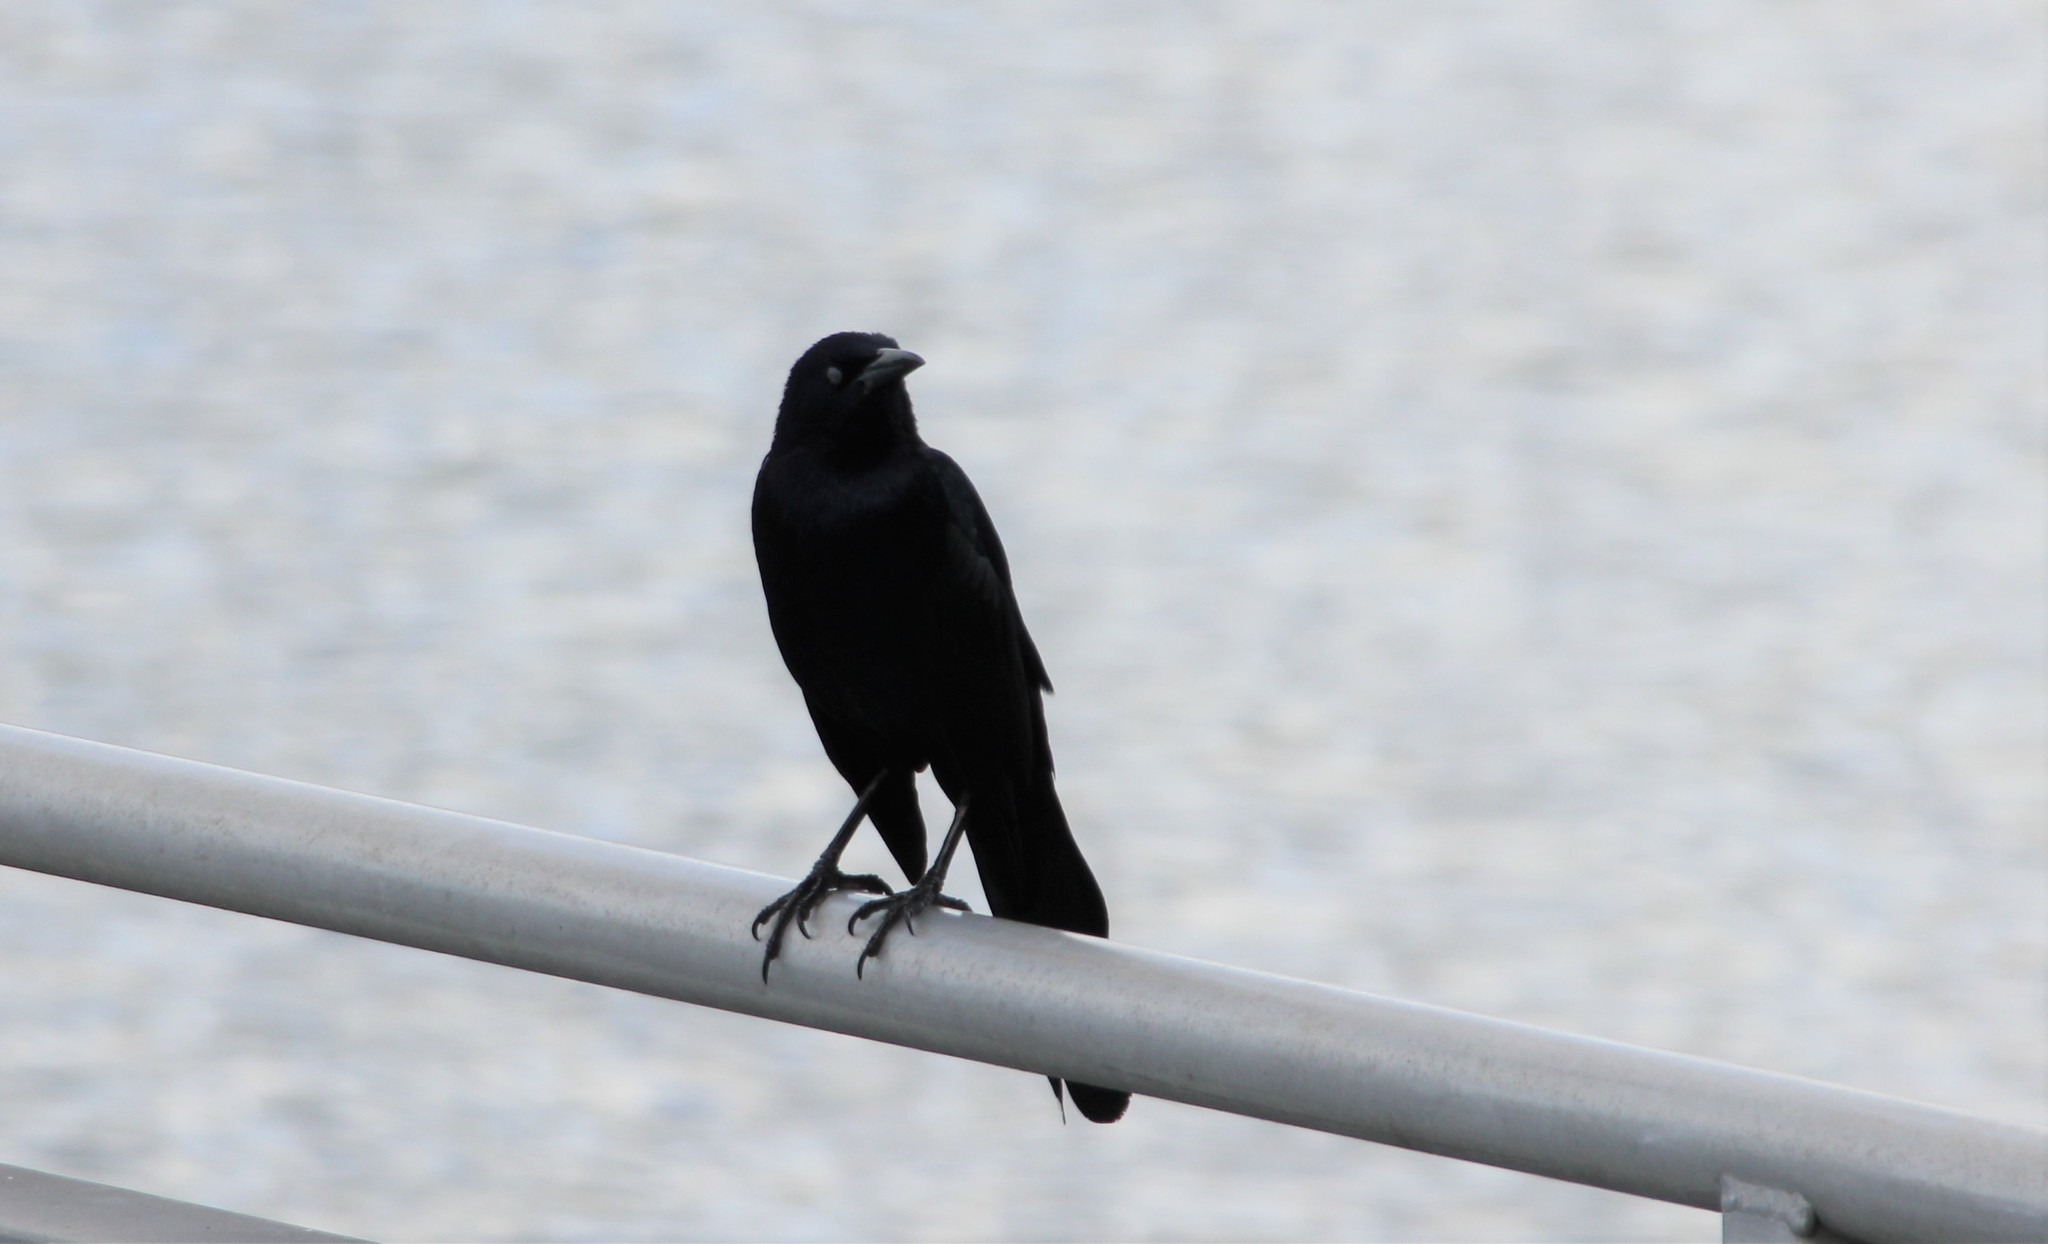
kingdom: Animalia
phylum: Chordata
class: Aves
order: Passeriformes
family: Icteridae
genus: Quiscalus
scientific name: Quiscalus mexicanus
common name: Great-tailed grackle
